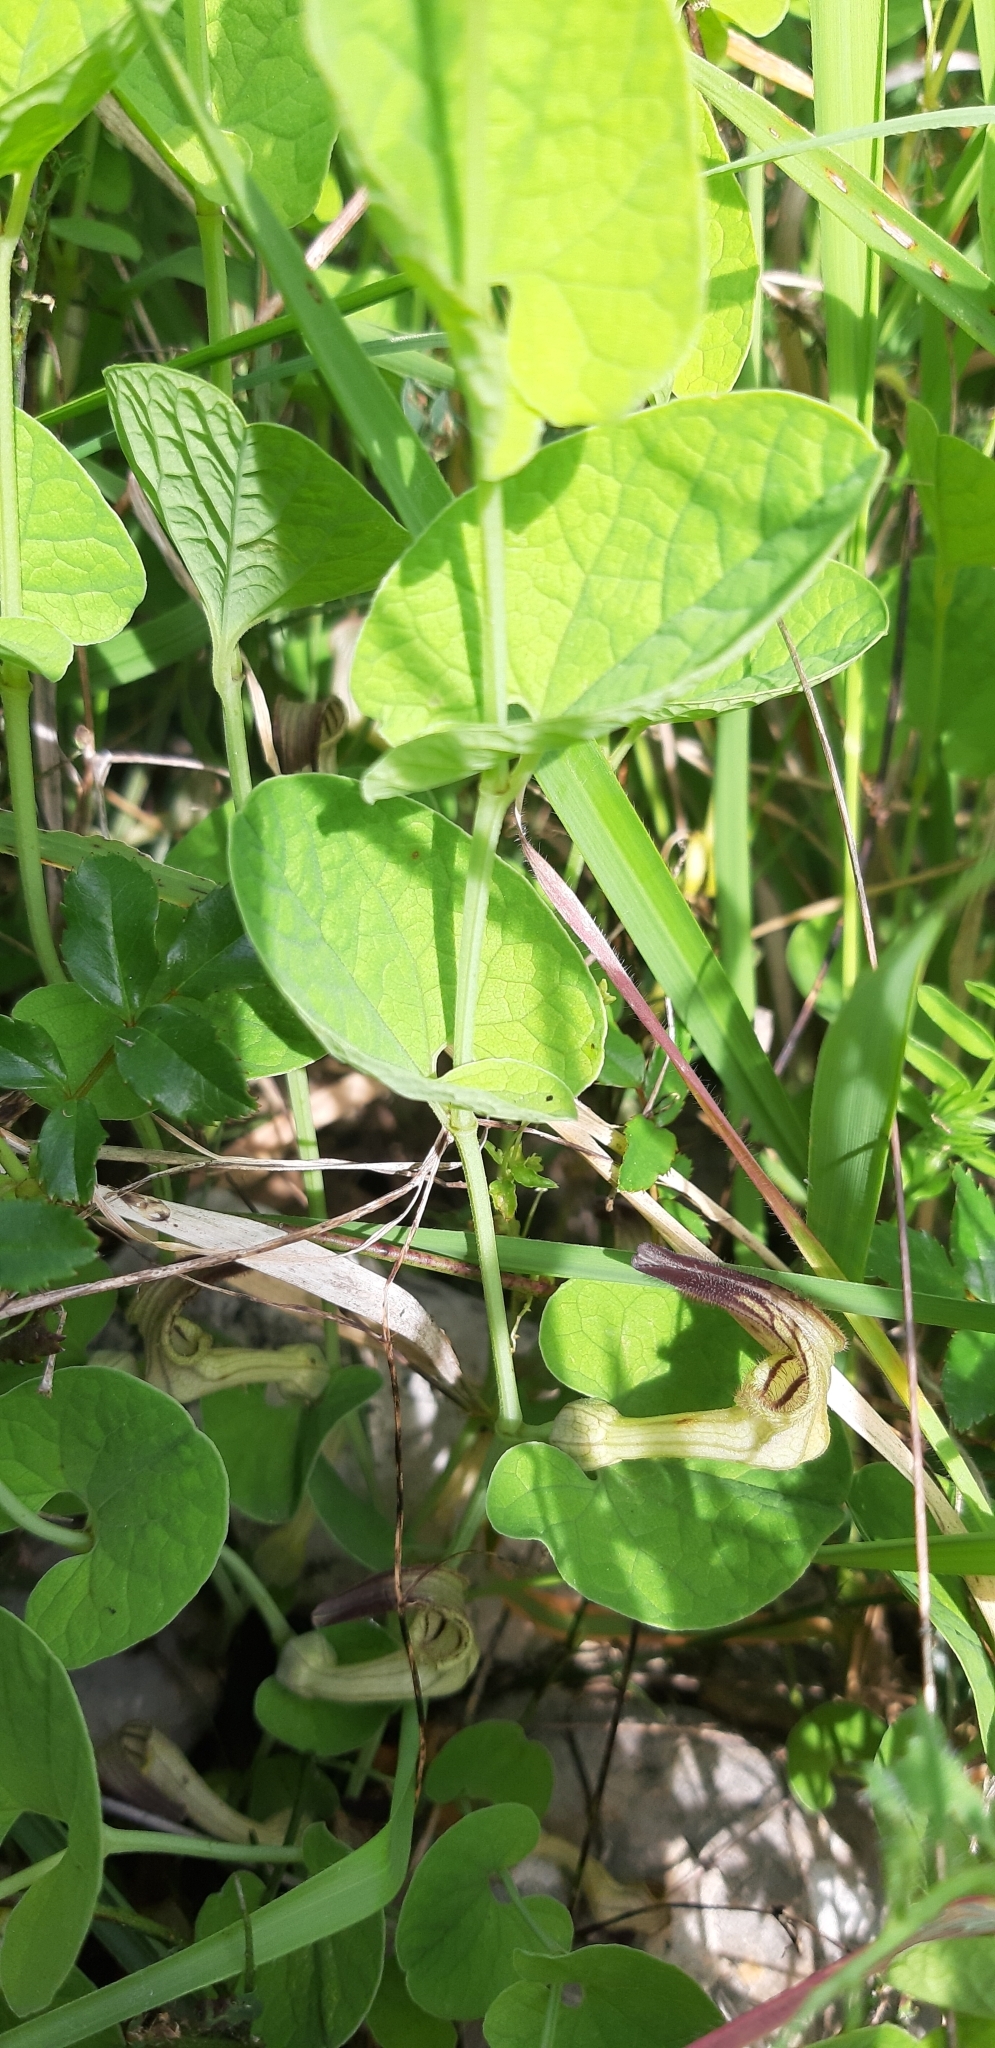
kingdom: Plantae
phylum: Tracheophyta
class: Magnoliopsida
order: Piperales
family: Aristolochiaceae
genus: Aristolochia
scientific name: Aristolochia clusii
